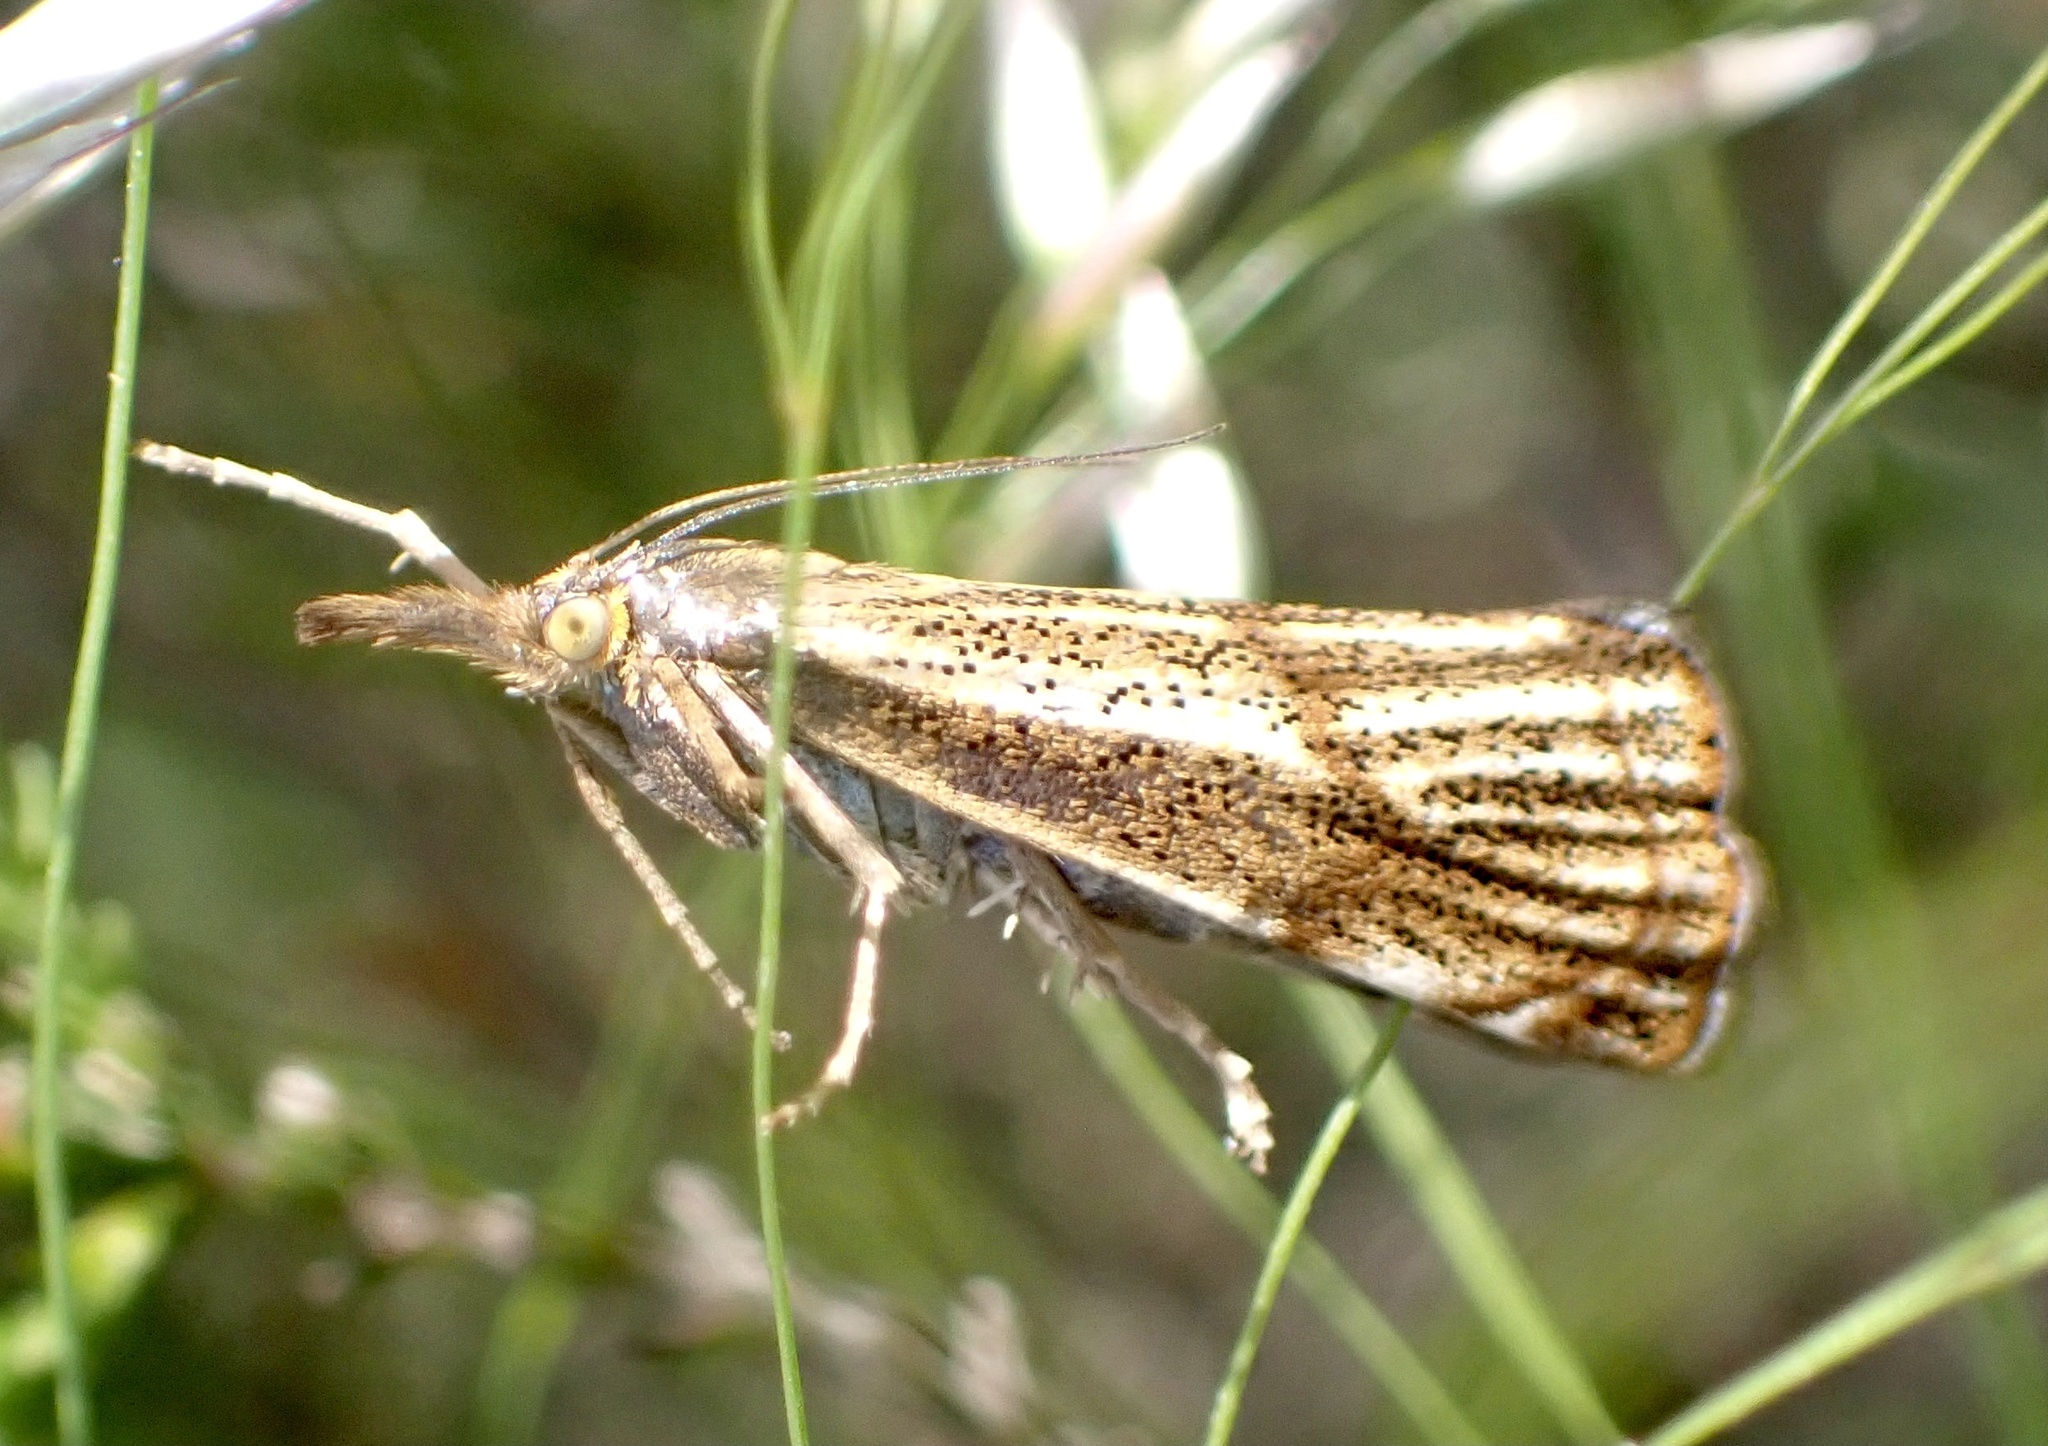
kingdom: Animalia
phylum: Arthropoda
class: Insecta
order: Lepidoptera
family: Crambidae
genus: Thisanotia
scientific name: Thisanotia chrysonuchella
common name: Powdered grass-veneer
